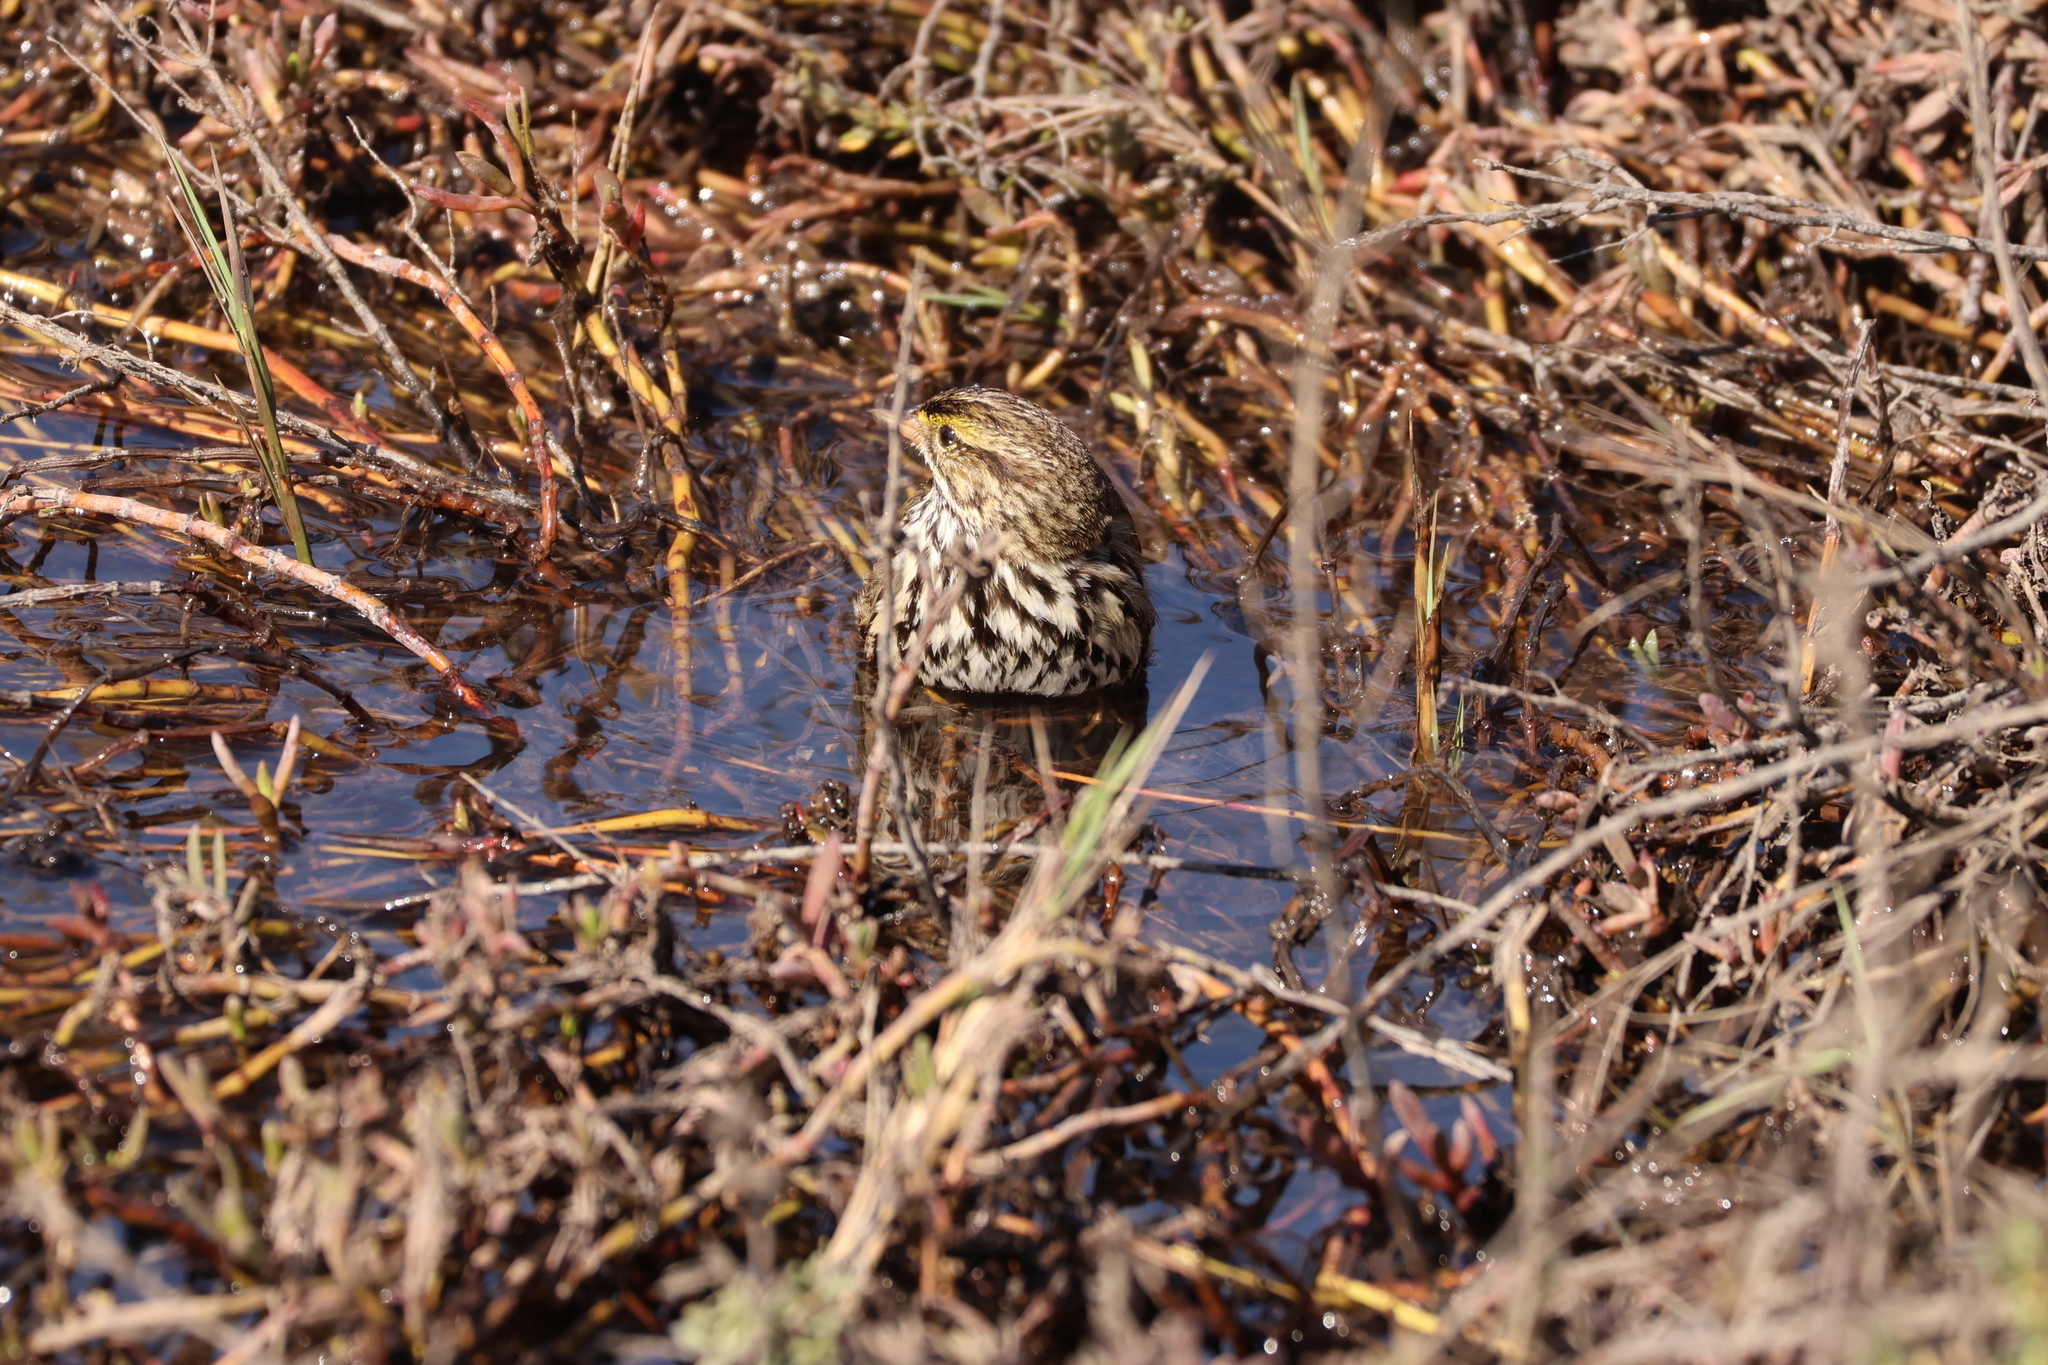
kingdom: Animalia
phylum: Chordata
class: Aves
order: Passeriformes
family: Passerellidae
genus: Passerculus
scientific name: Passerculus sandwichensis
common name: Savannah sparrow
